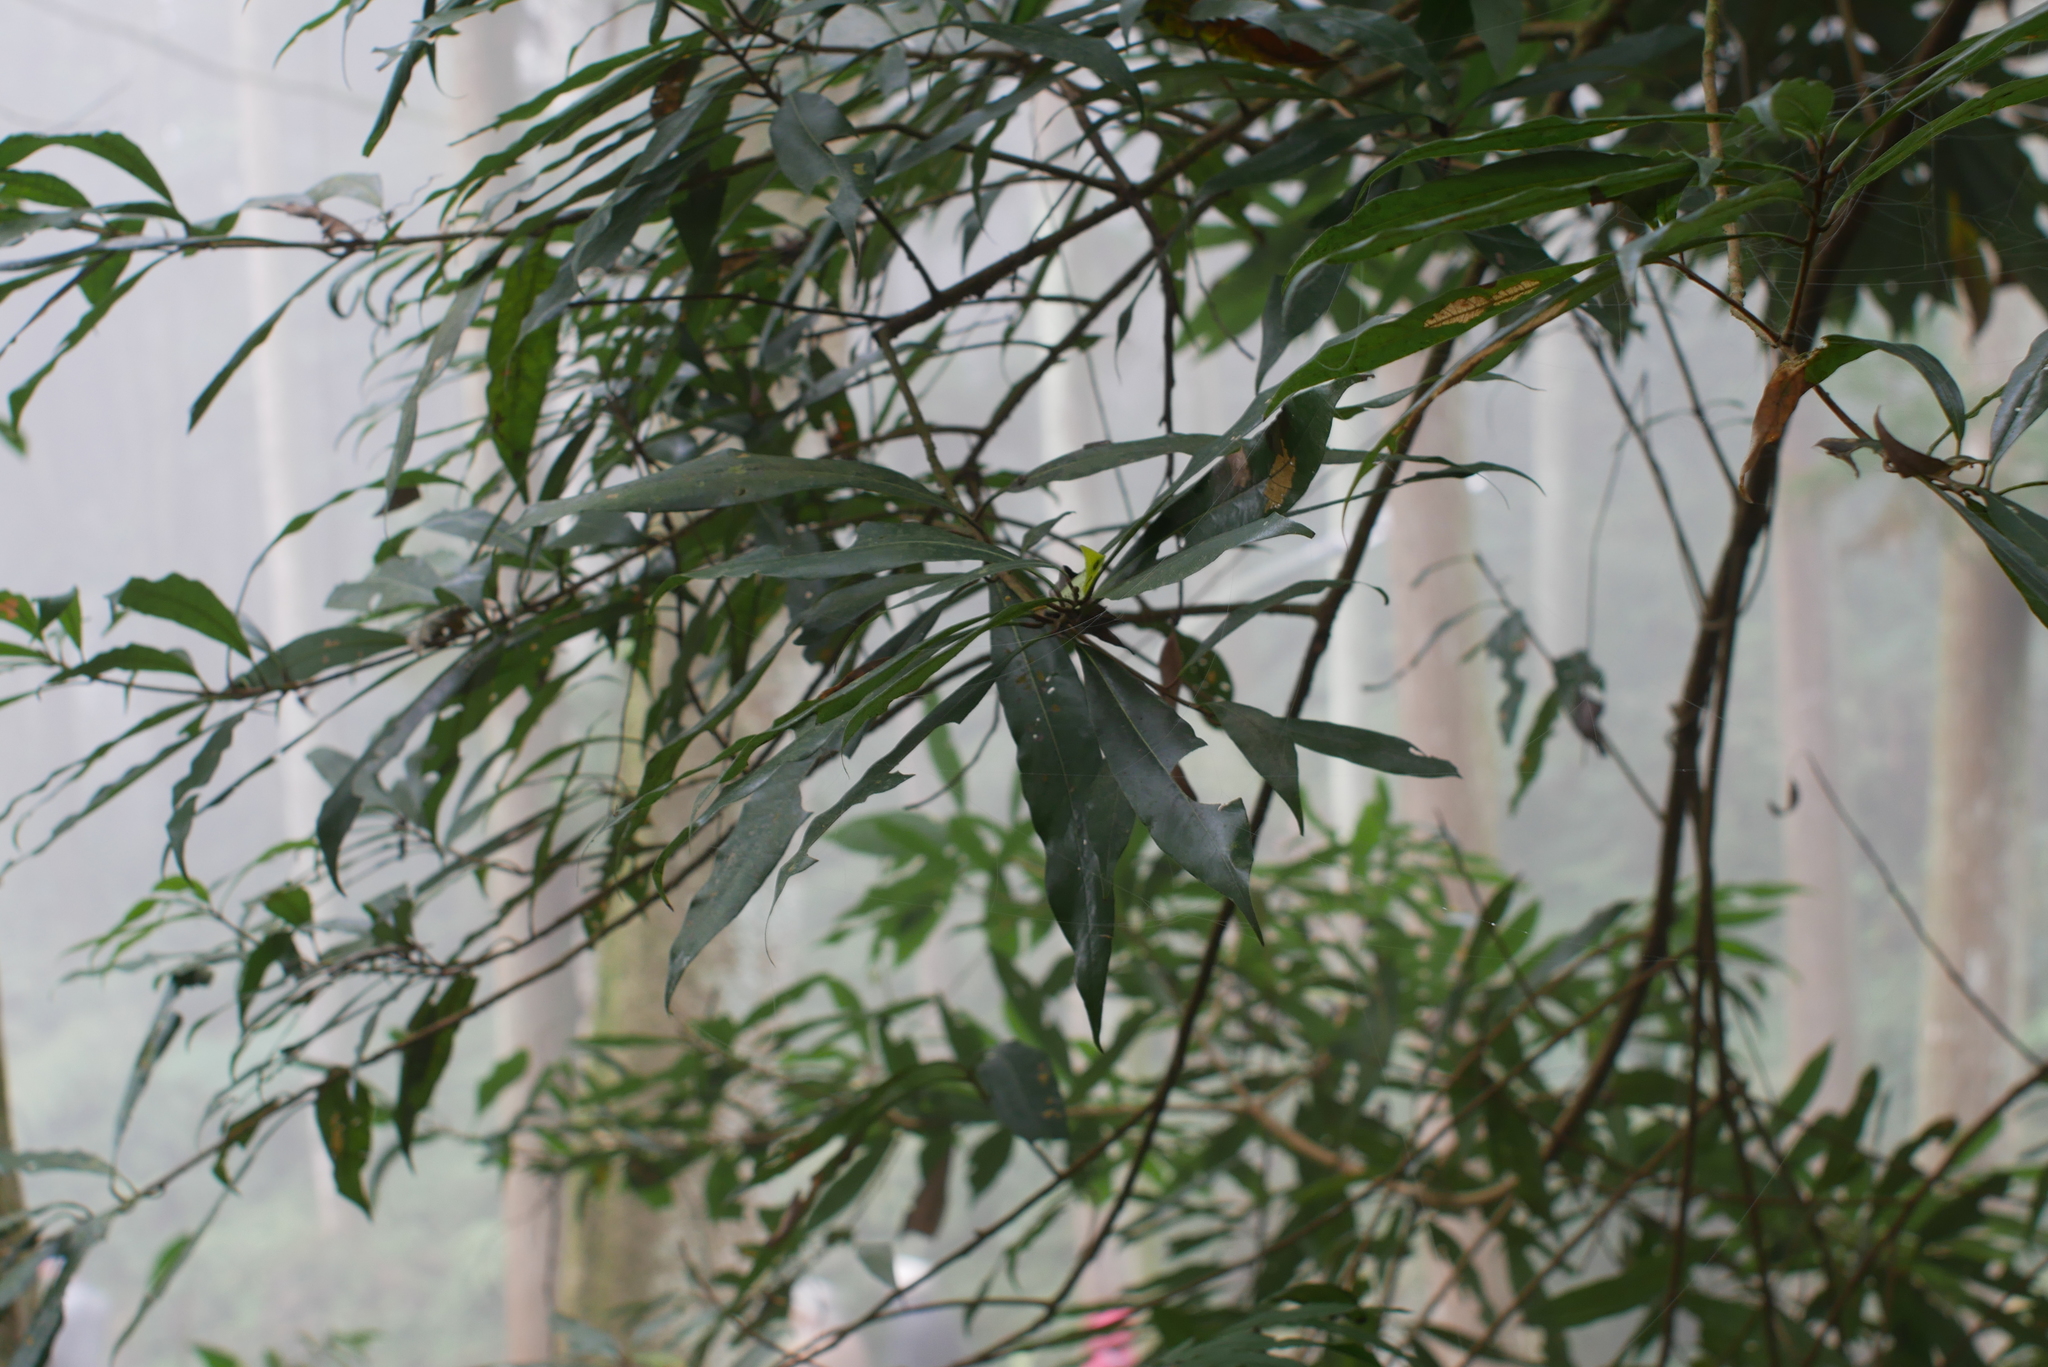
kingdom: Plantae
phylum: Tracheophyta
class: Magnoliopsida
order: Laurales
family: Lauraceae
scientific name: Lauraceae
